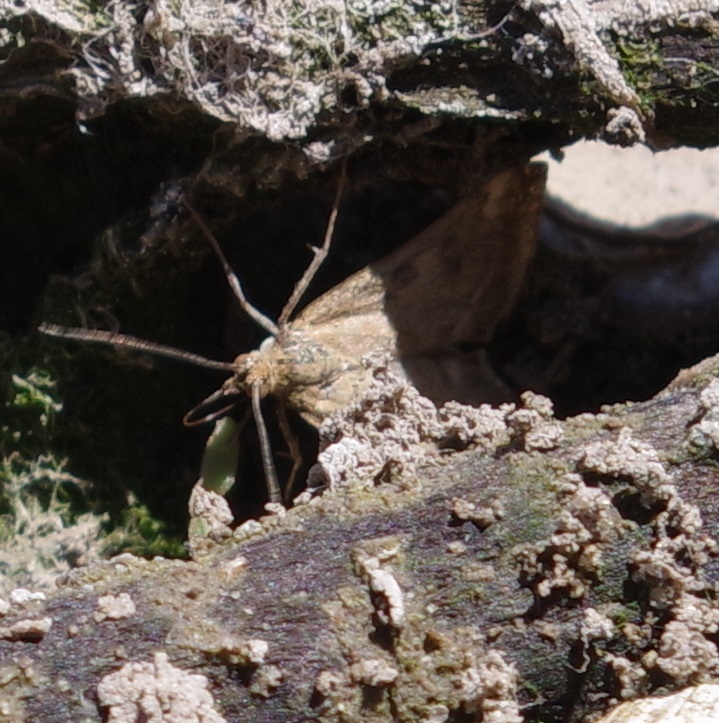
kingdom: Animalia
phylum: Arthropoda
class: Insecta
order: Lepidoptera
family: Crambidae
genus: Pyrausta
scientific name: Pyrausta despicata
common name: Straw-barred pearl
